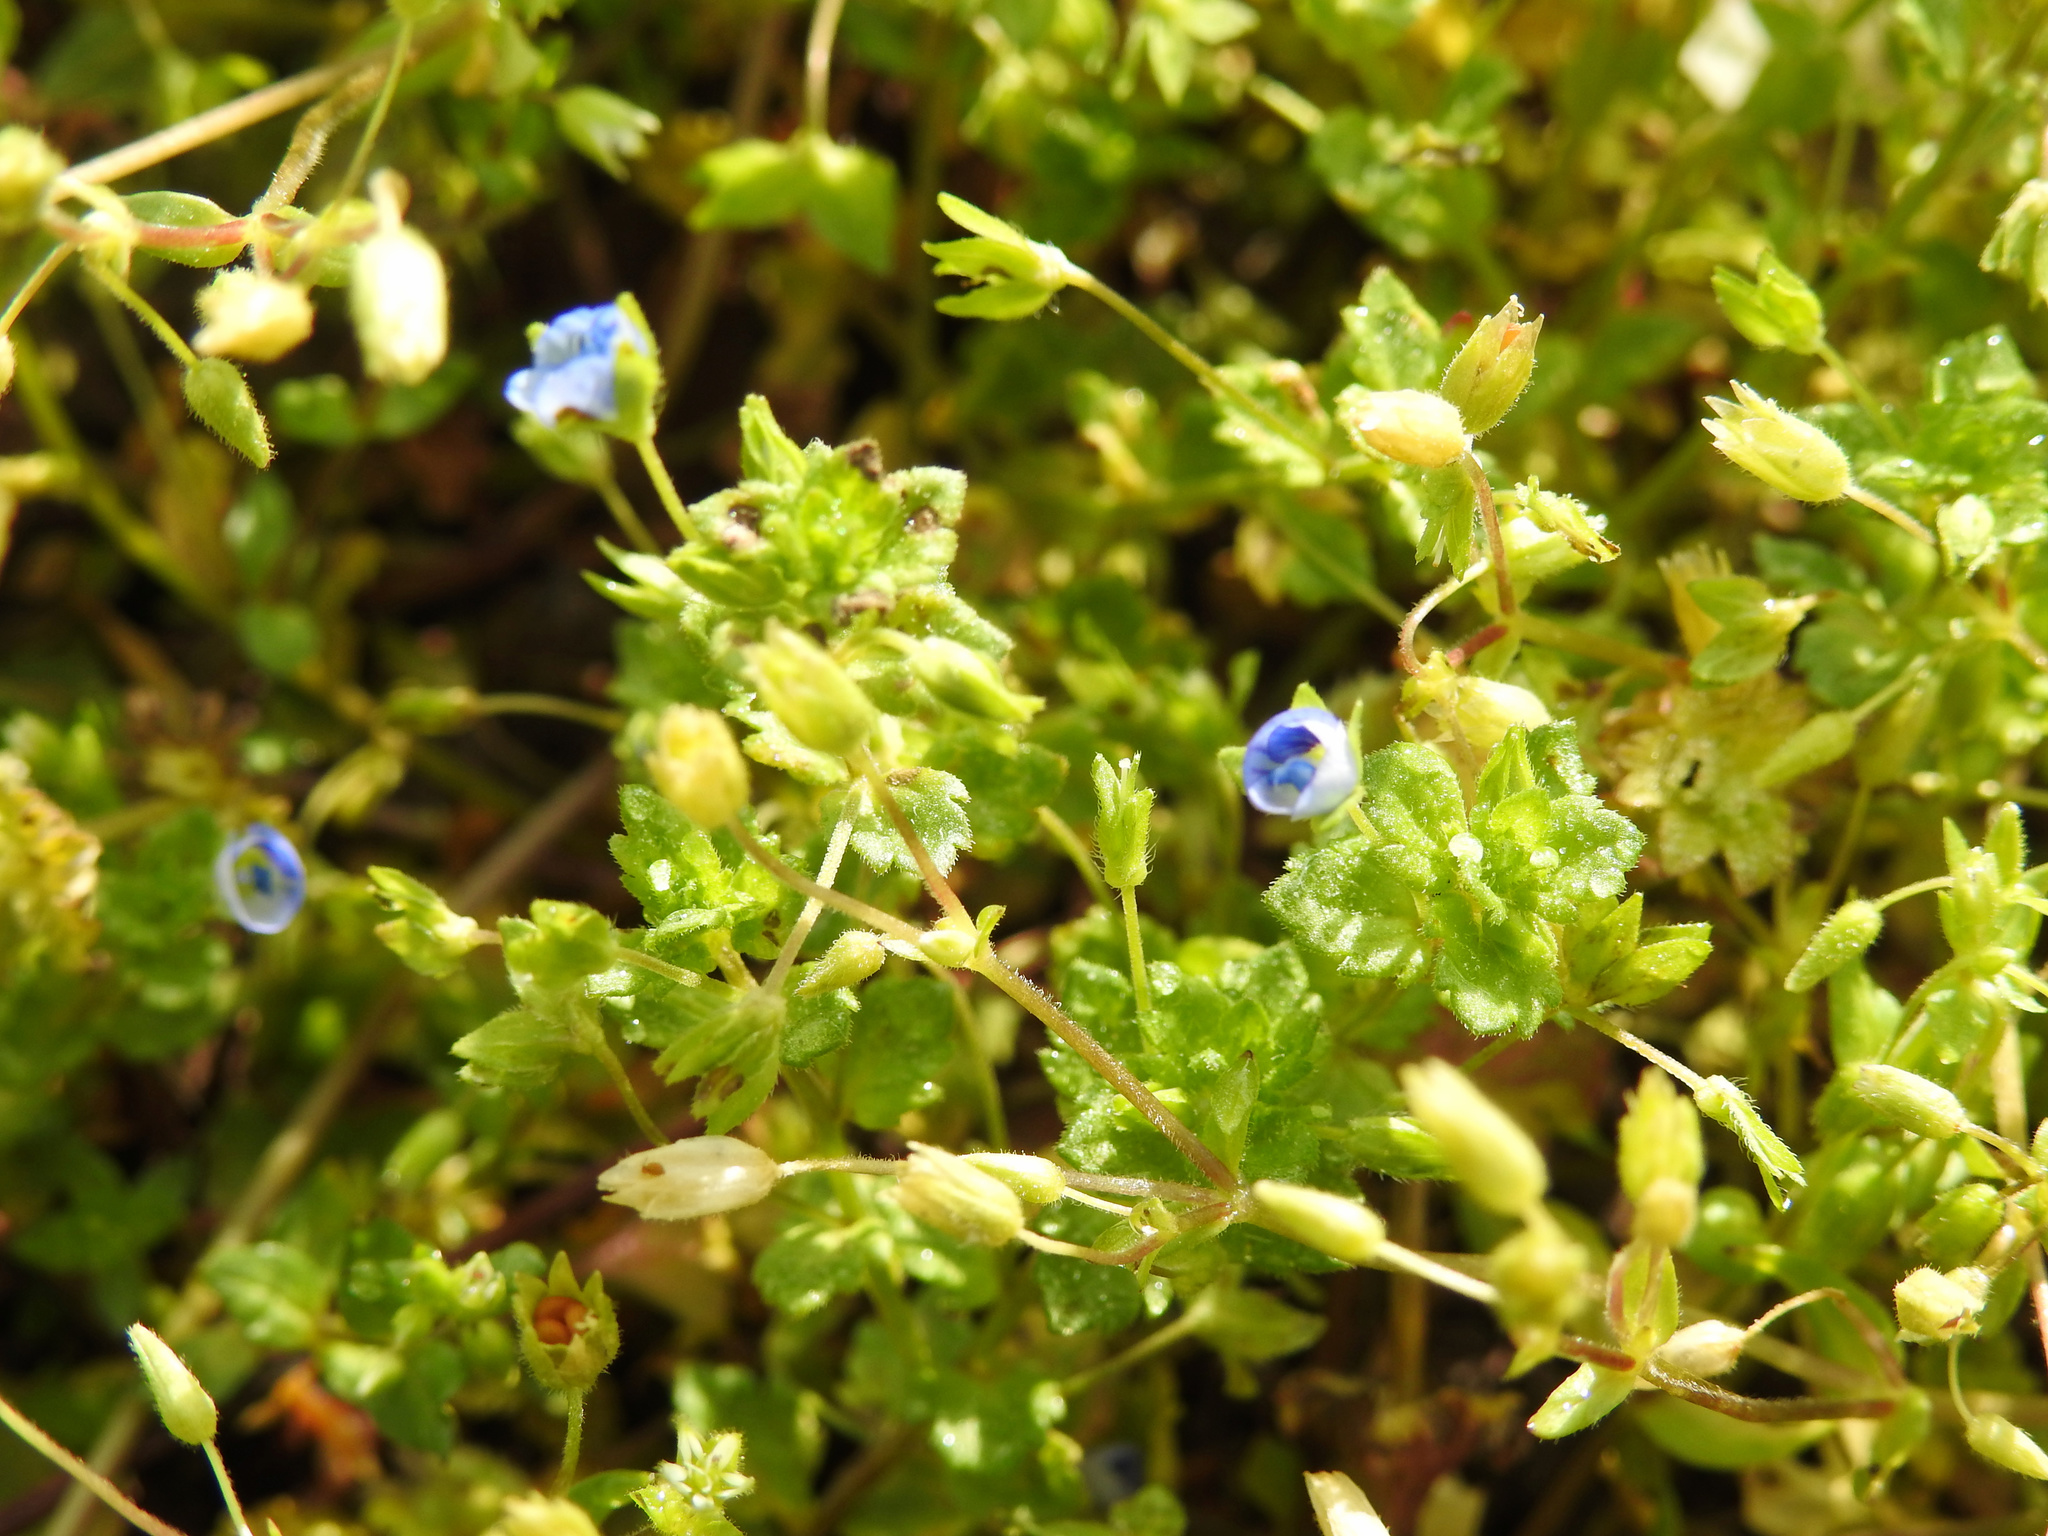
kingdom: Plantae
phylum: Tracheophyta
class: Magnoliopsida
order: Lamiales
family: Plantaginaceae
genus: Veronica
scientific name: Veronica persica
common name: Common field-speedwell
